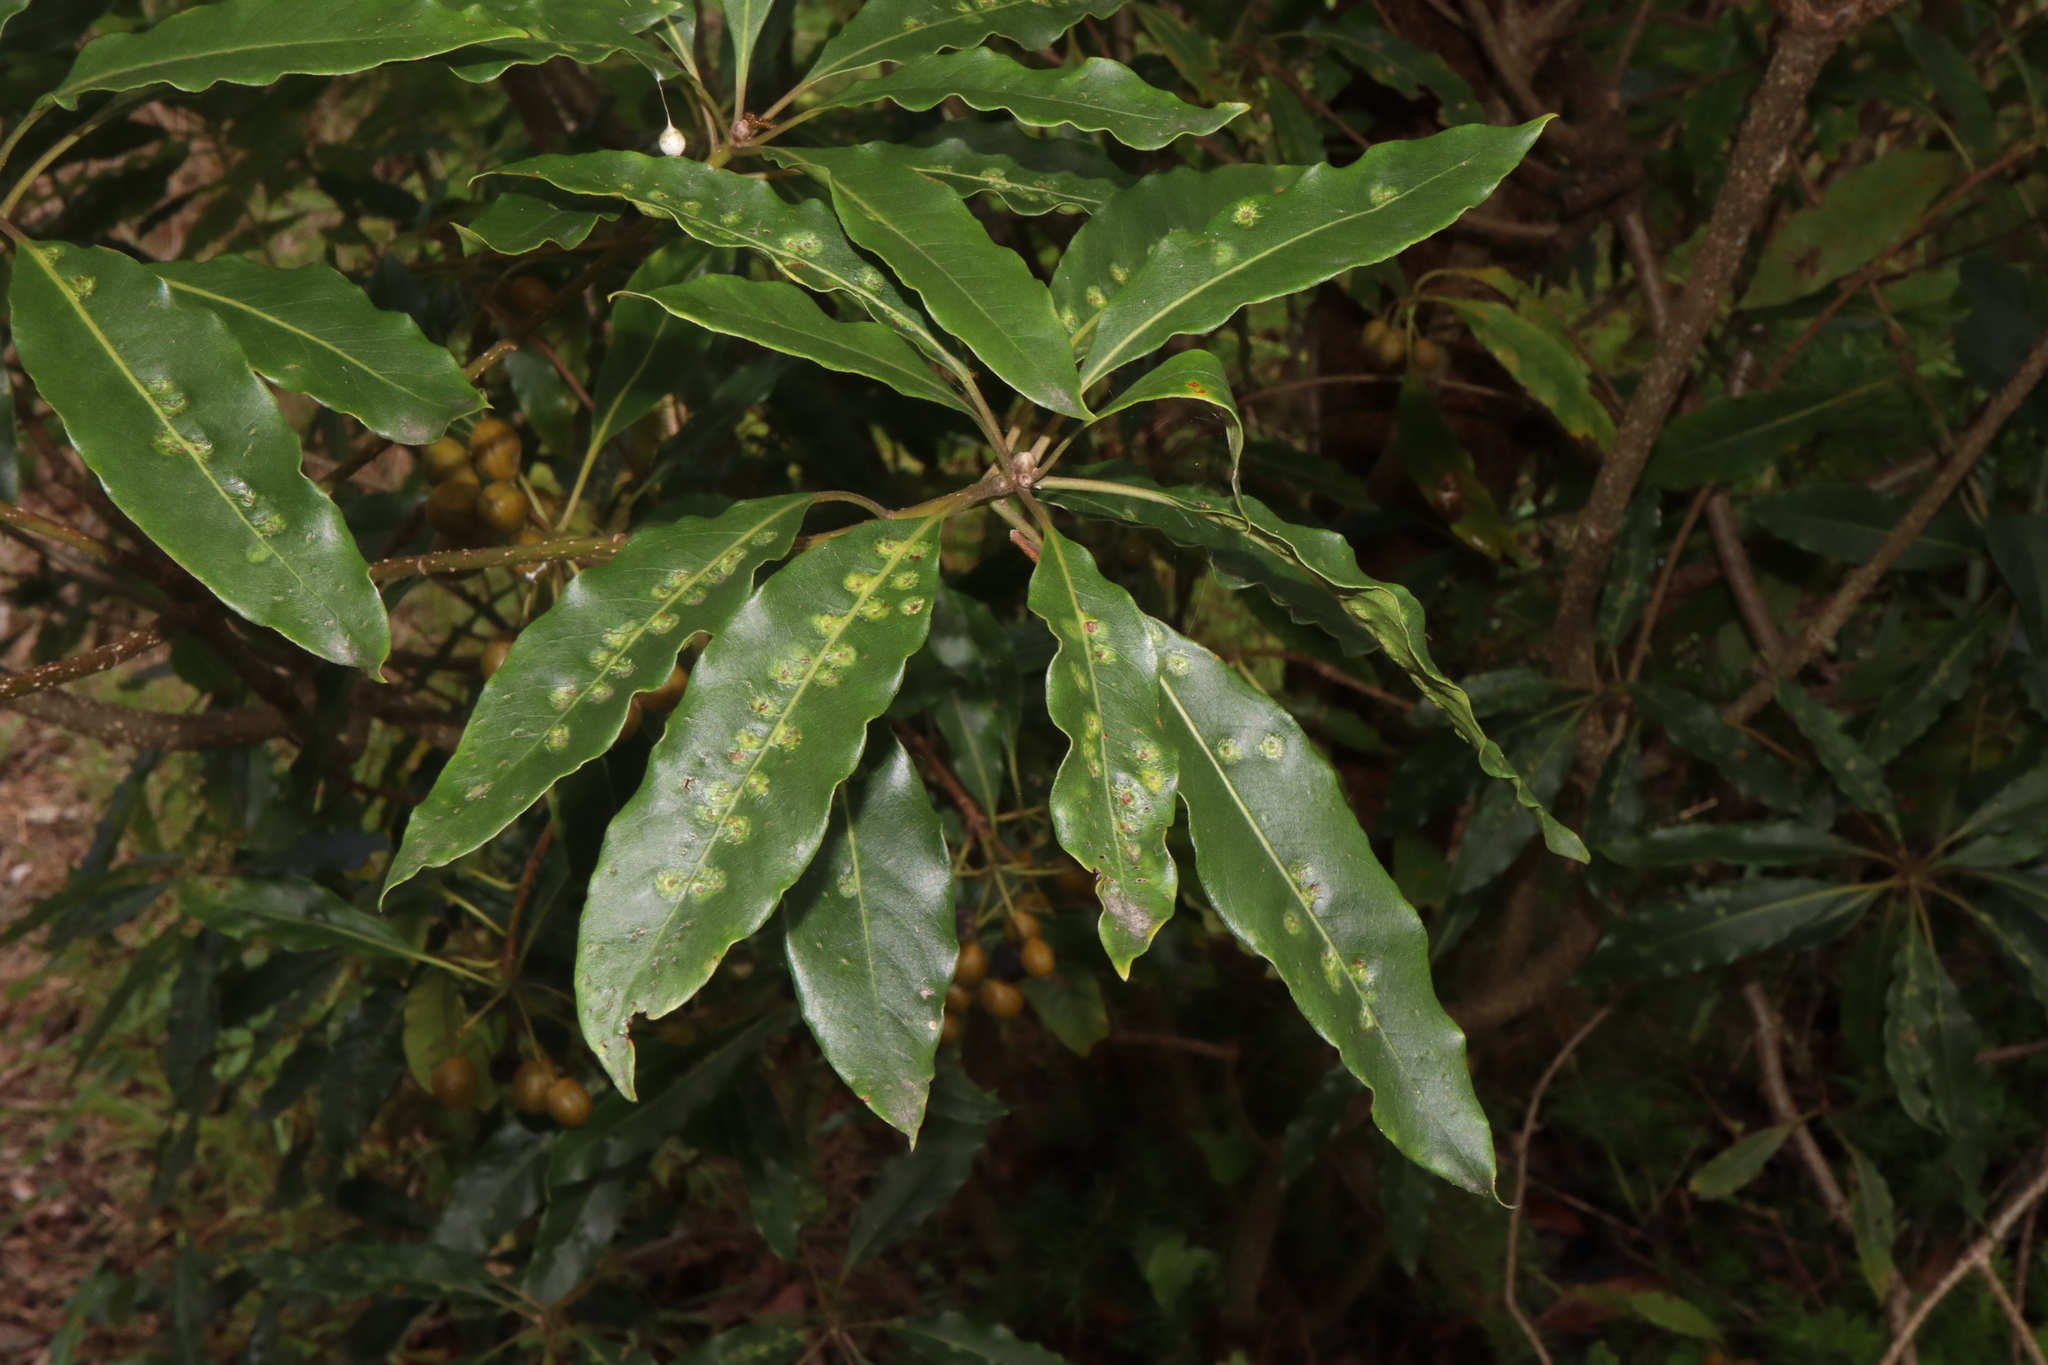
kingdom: Animalia
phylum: Arthropoda
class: Insecta
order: Diptera
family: Agromyzidae
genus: Phytoliriomyza
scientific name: Phytoliriomyza pittosporophylli
